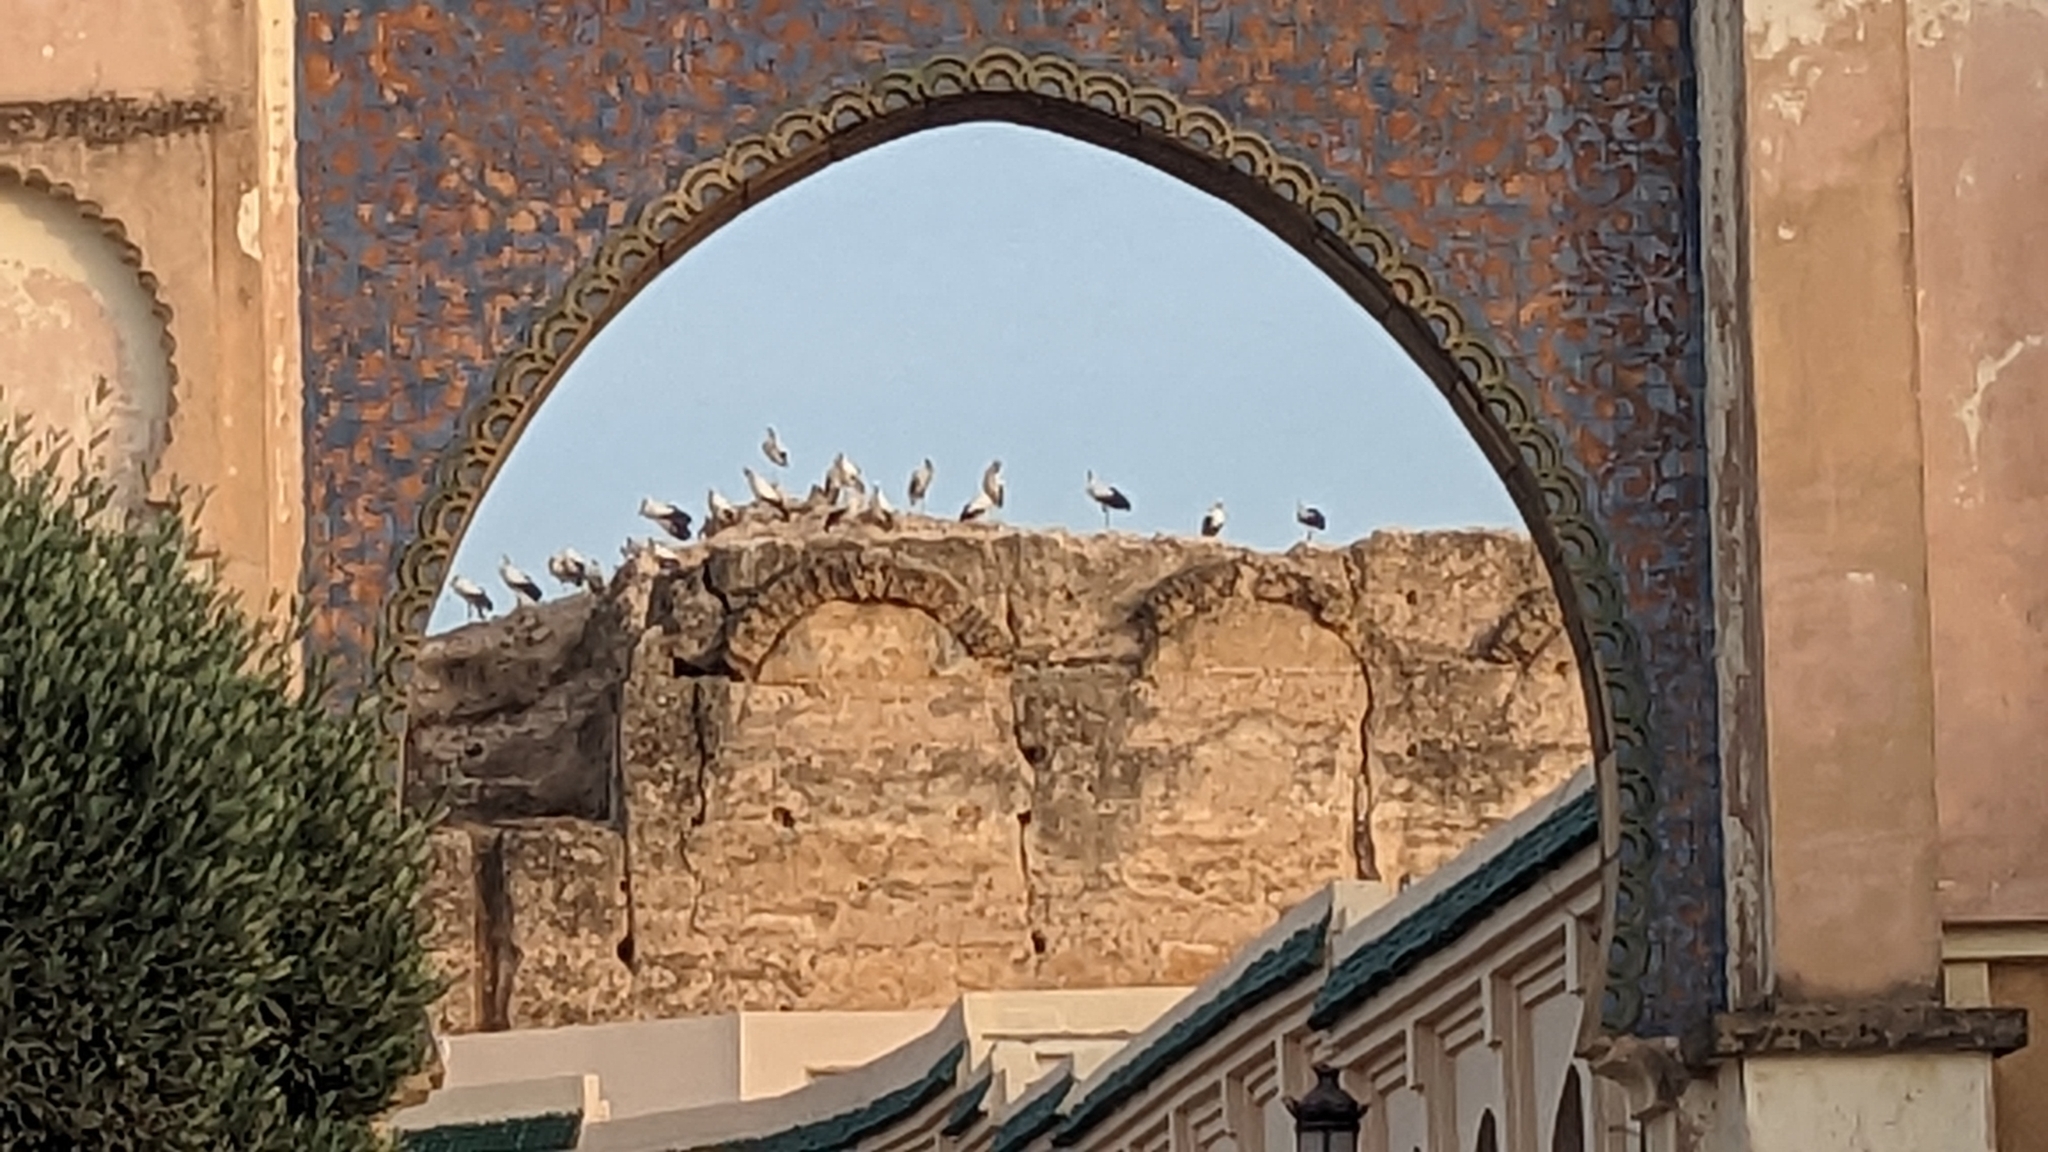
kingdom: Animalia
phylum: Chordata
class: Aves
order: Ciconiiformes
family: Ciconiidae
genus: Ciconia
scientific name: Ciconia ciconia
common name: White stork
